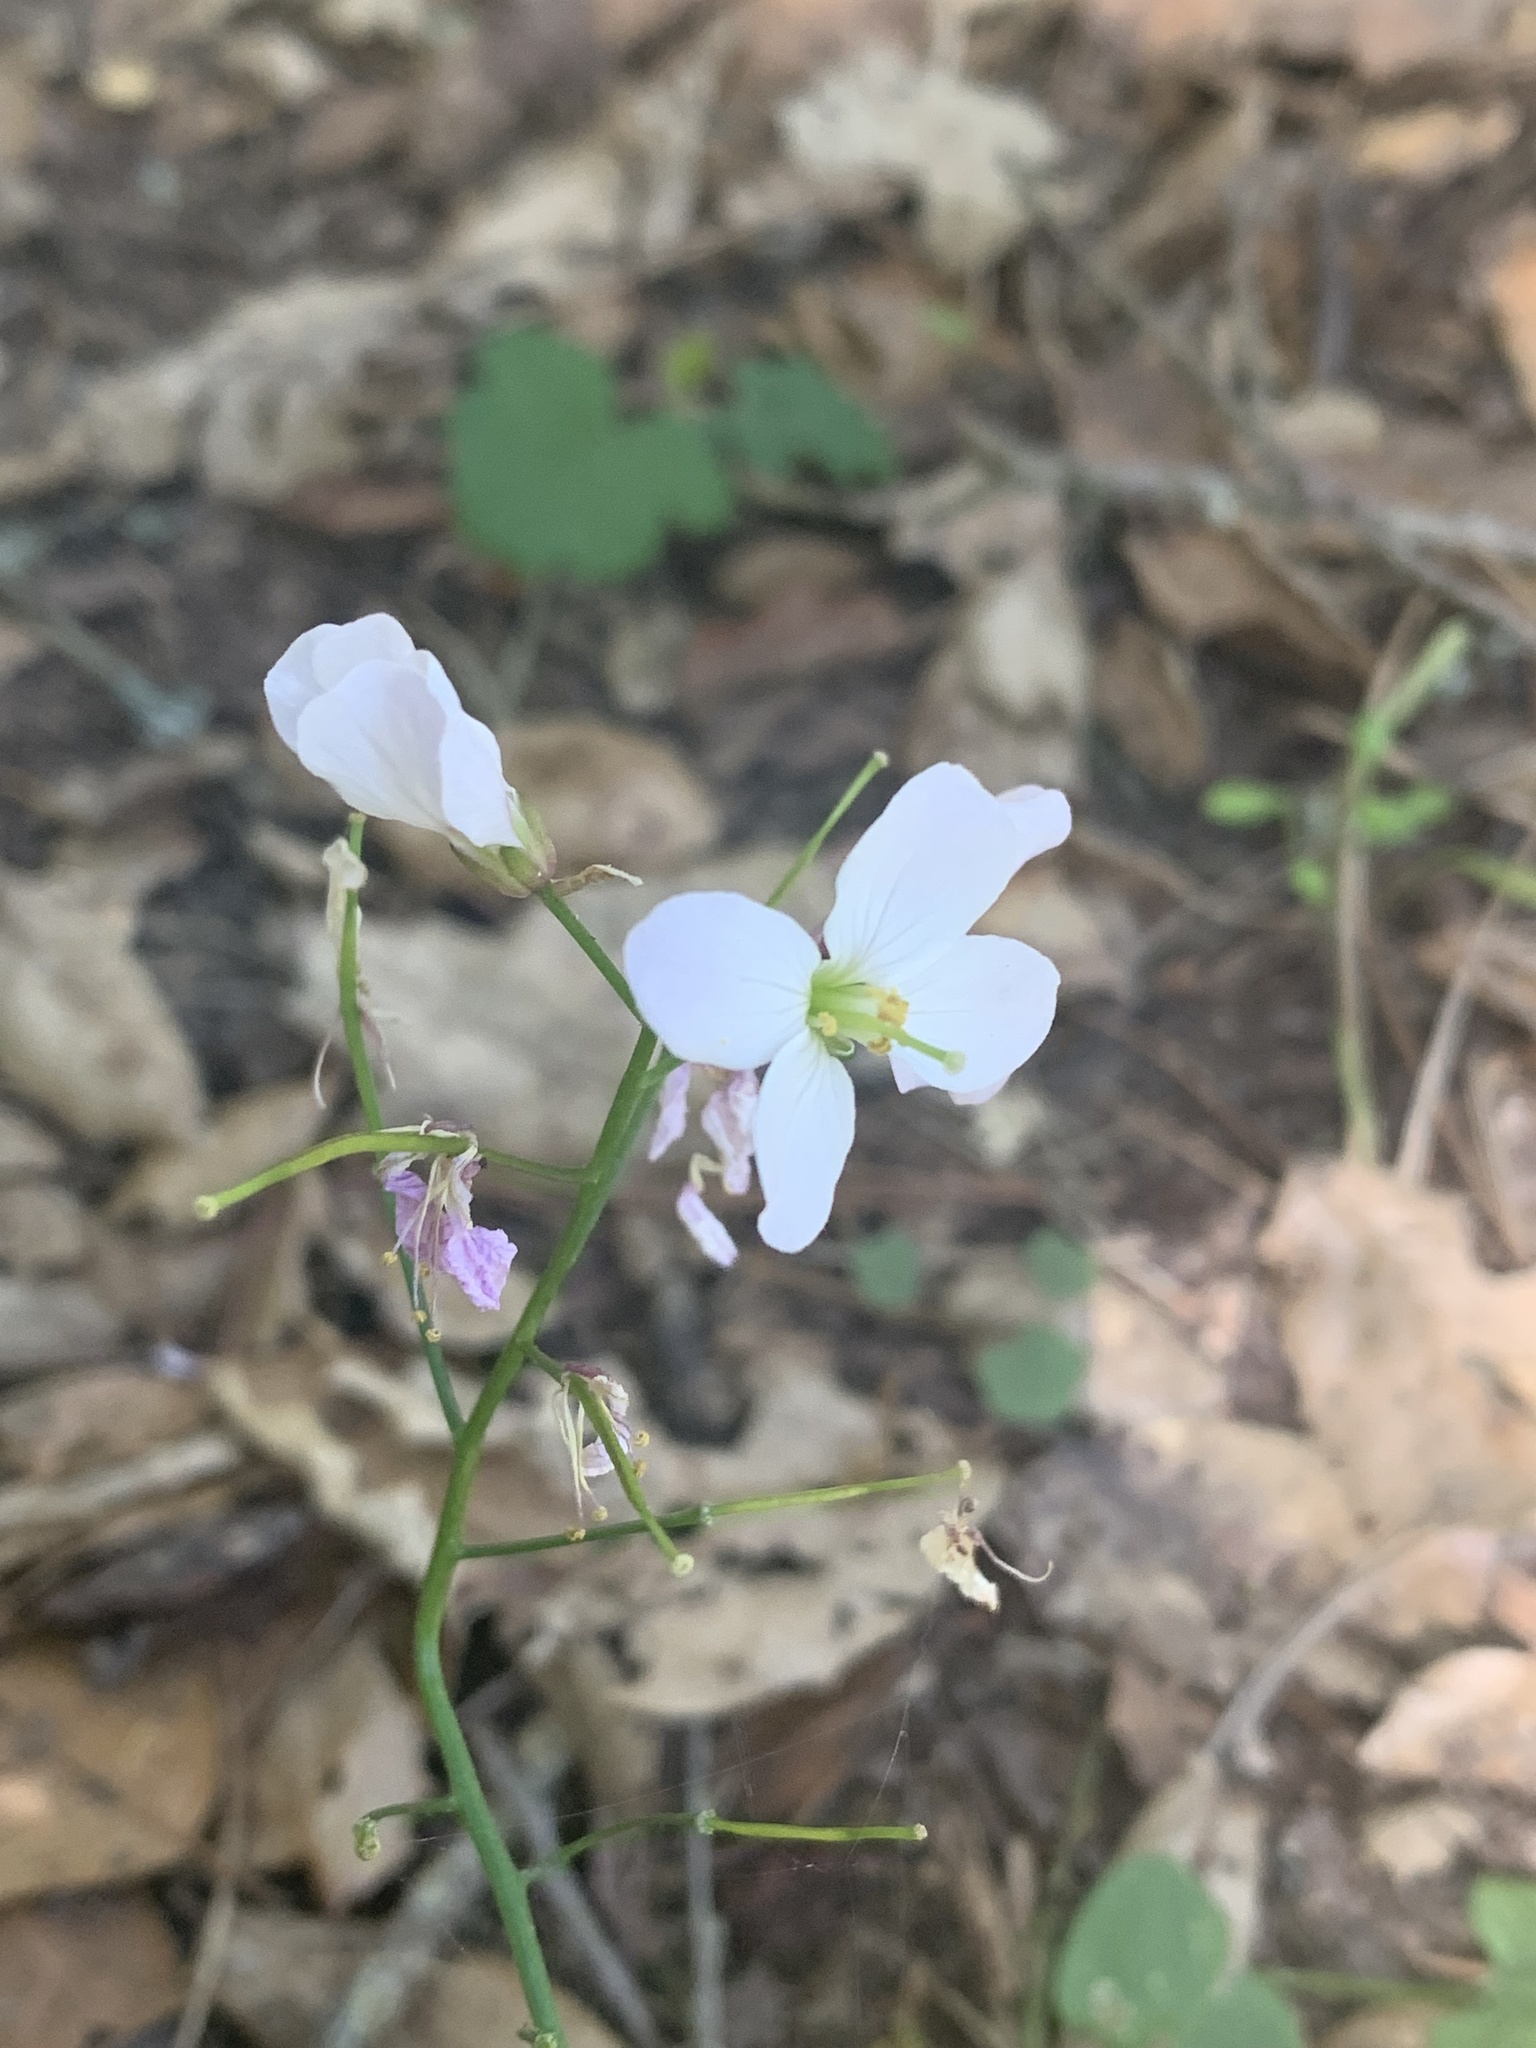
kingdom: Plantae
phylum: Tracheophyta
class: Magnoliopsida
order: Brassicales
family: Brassicaceae
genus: Cardamine
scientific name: Cardamine californica
